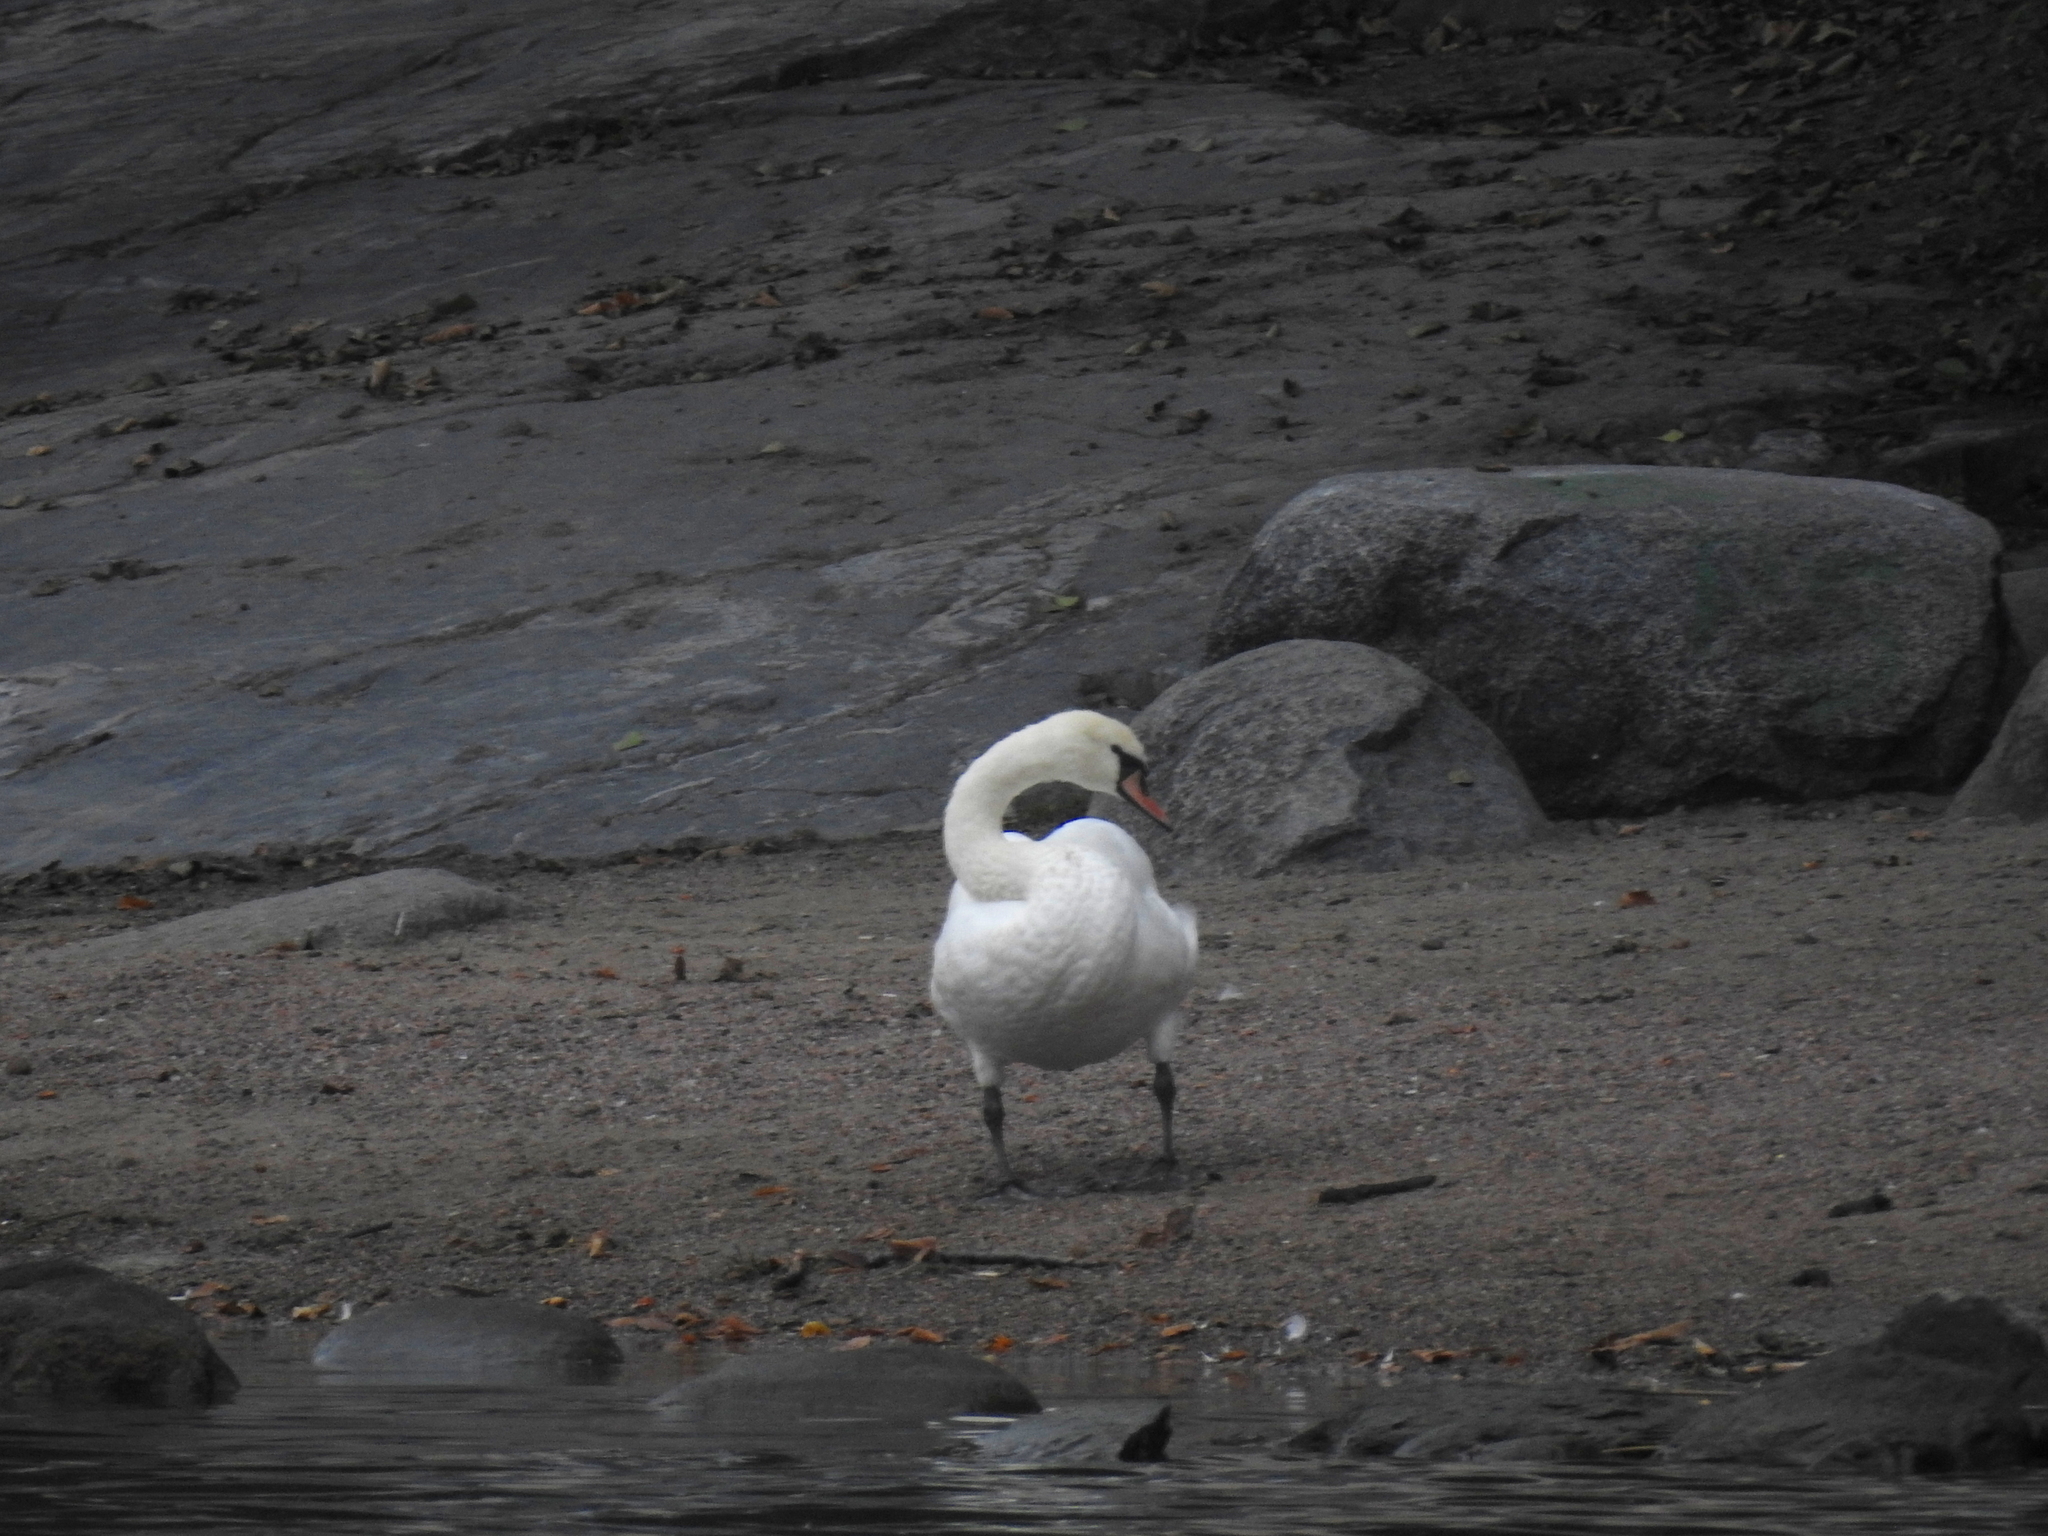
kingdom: Animalia
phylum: Chordata
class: Aves
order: Anseriformes
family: Anatidae
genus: Cygnus
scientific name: Cygnus olor
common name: Mute swan
